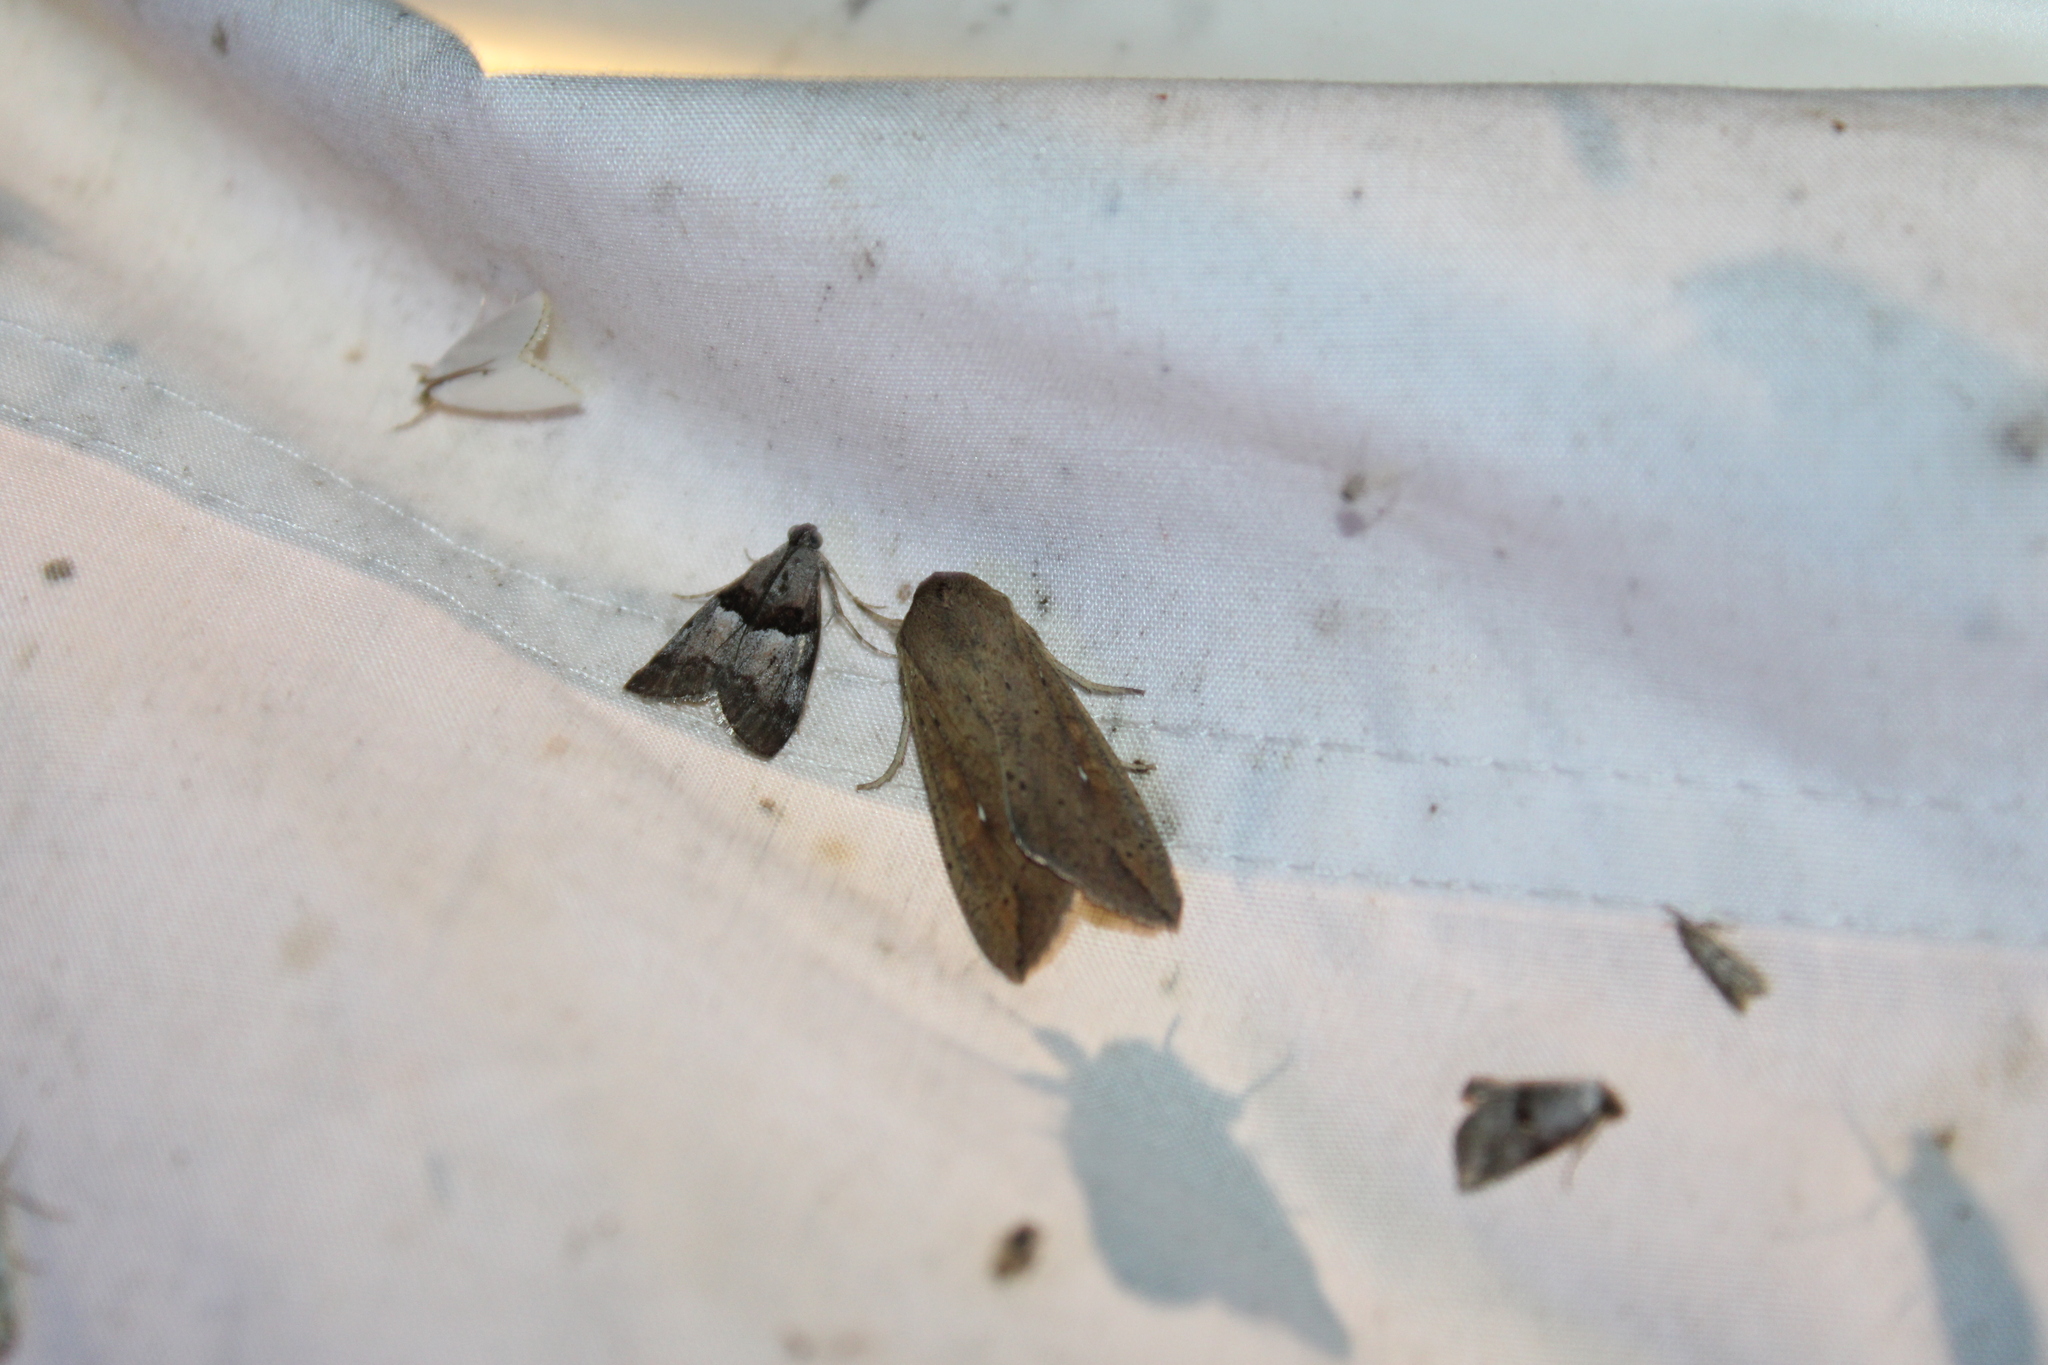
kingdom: Animalia
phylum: Arthropoda
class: Insecta
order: Lepidoptera
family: Noctuidae
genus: Mythimna
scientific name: Mythimna unipuncta
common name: White-speck
